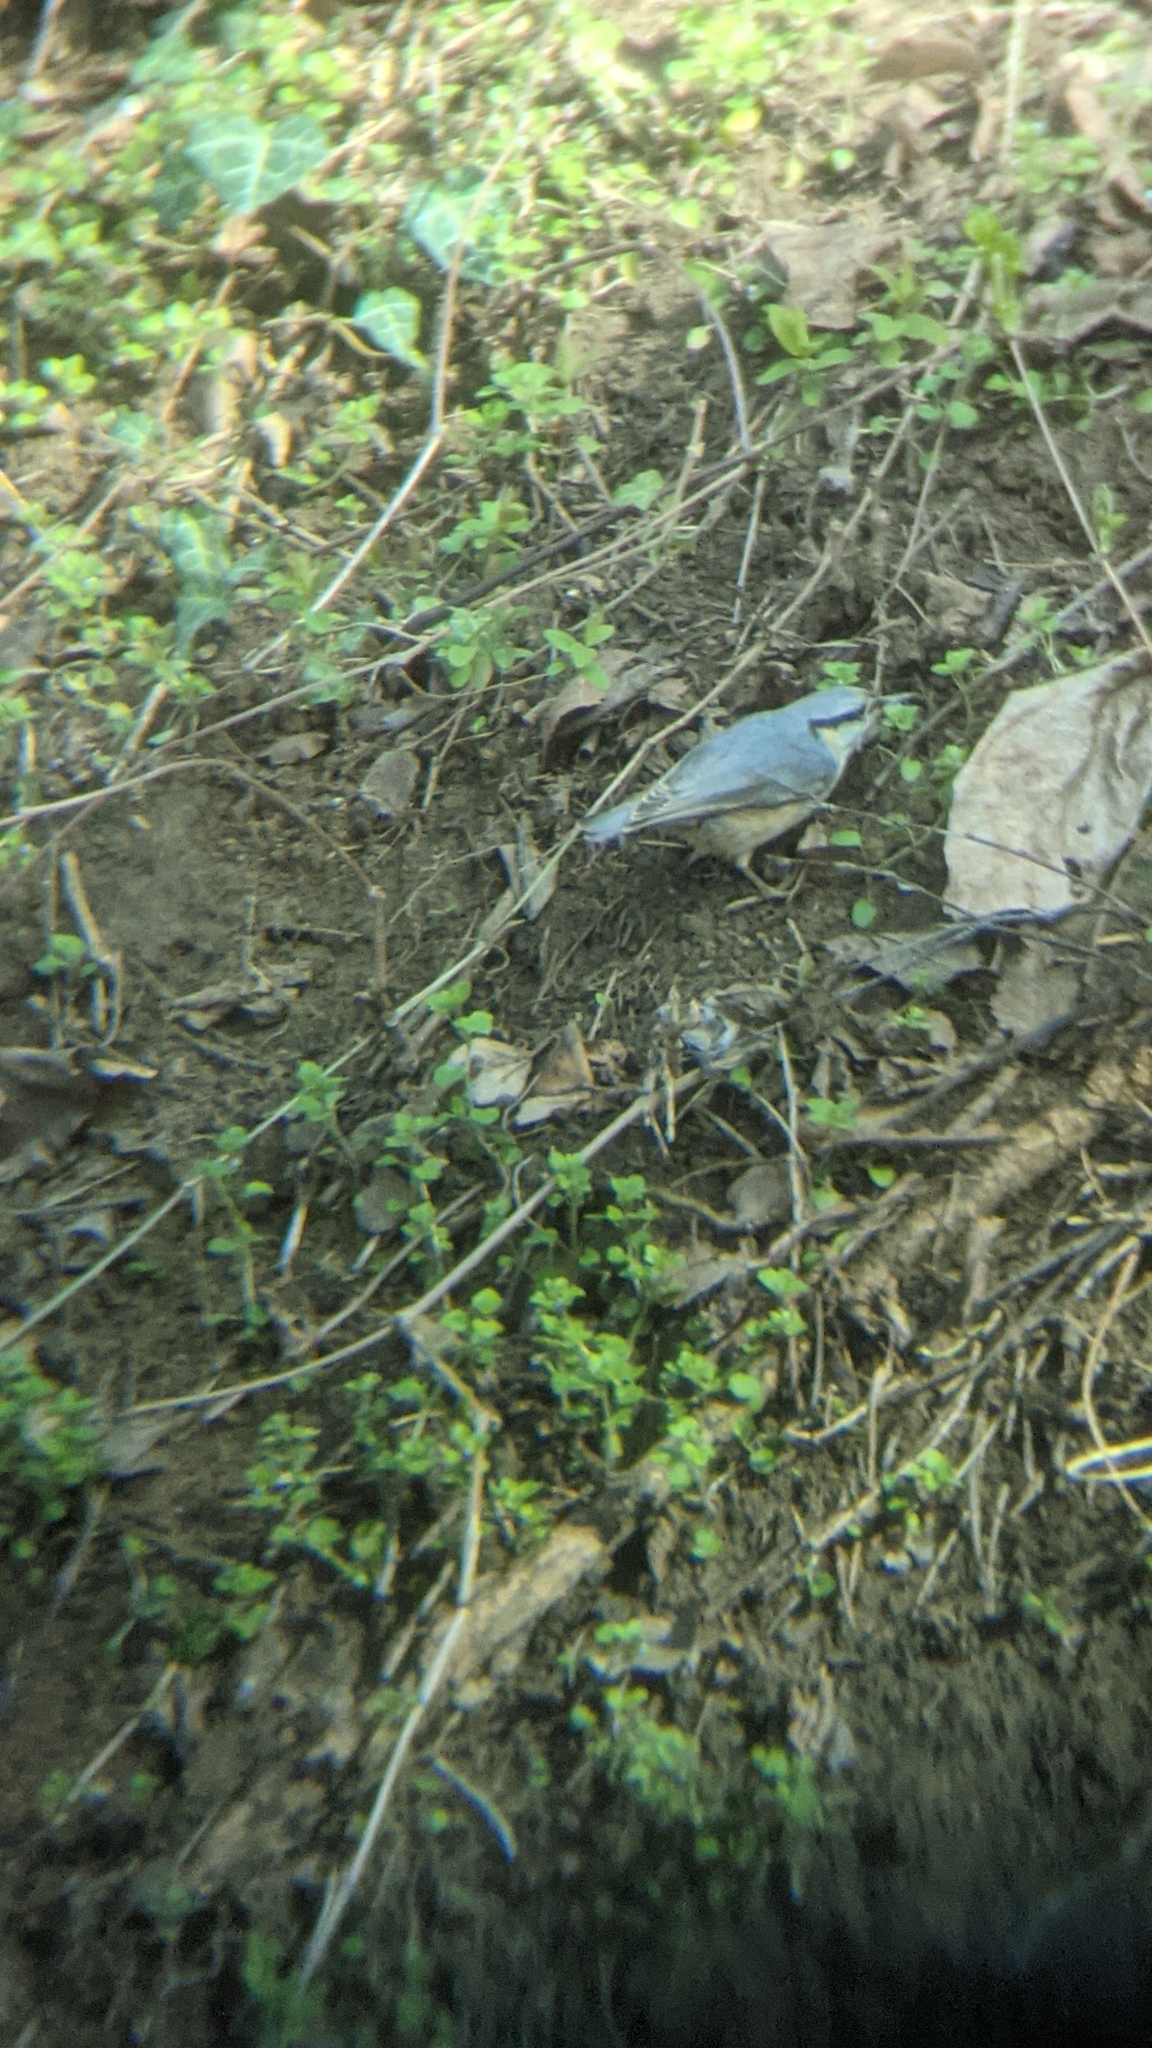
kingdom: Animalia
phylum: Chordata
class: Aves
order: Passeriformes
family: Sittidae
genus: Sitta
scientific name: Sitta europaea
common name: Eurasian nuthatch
